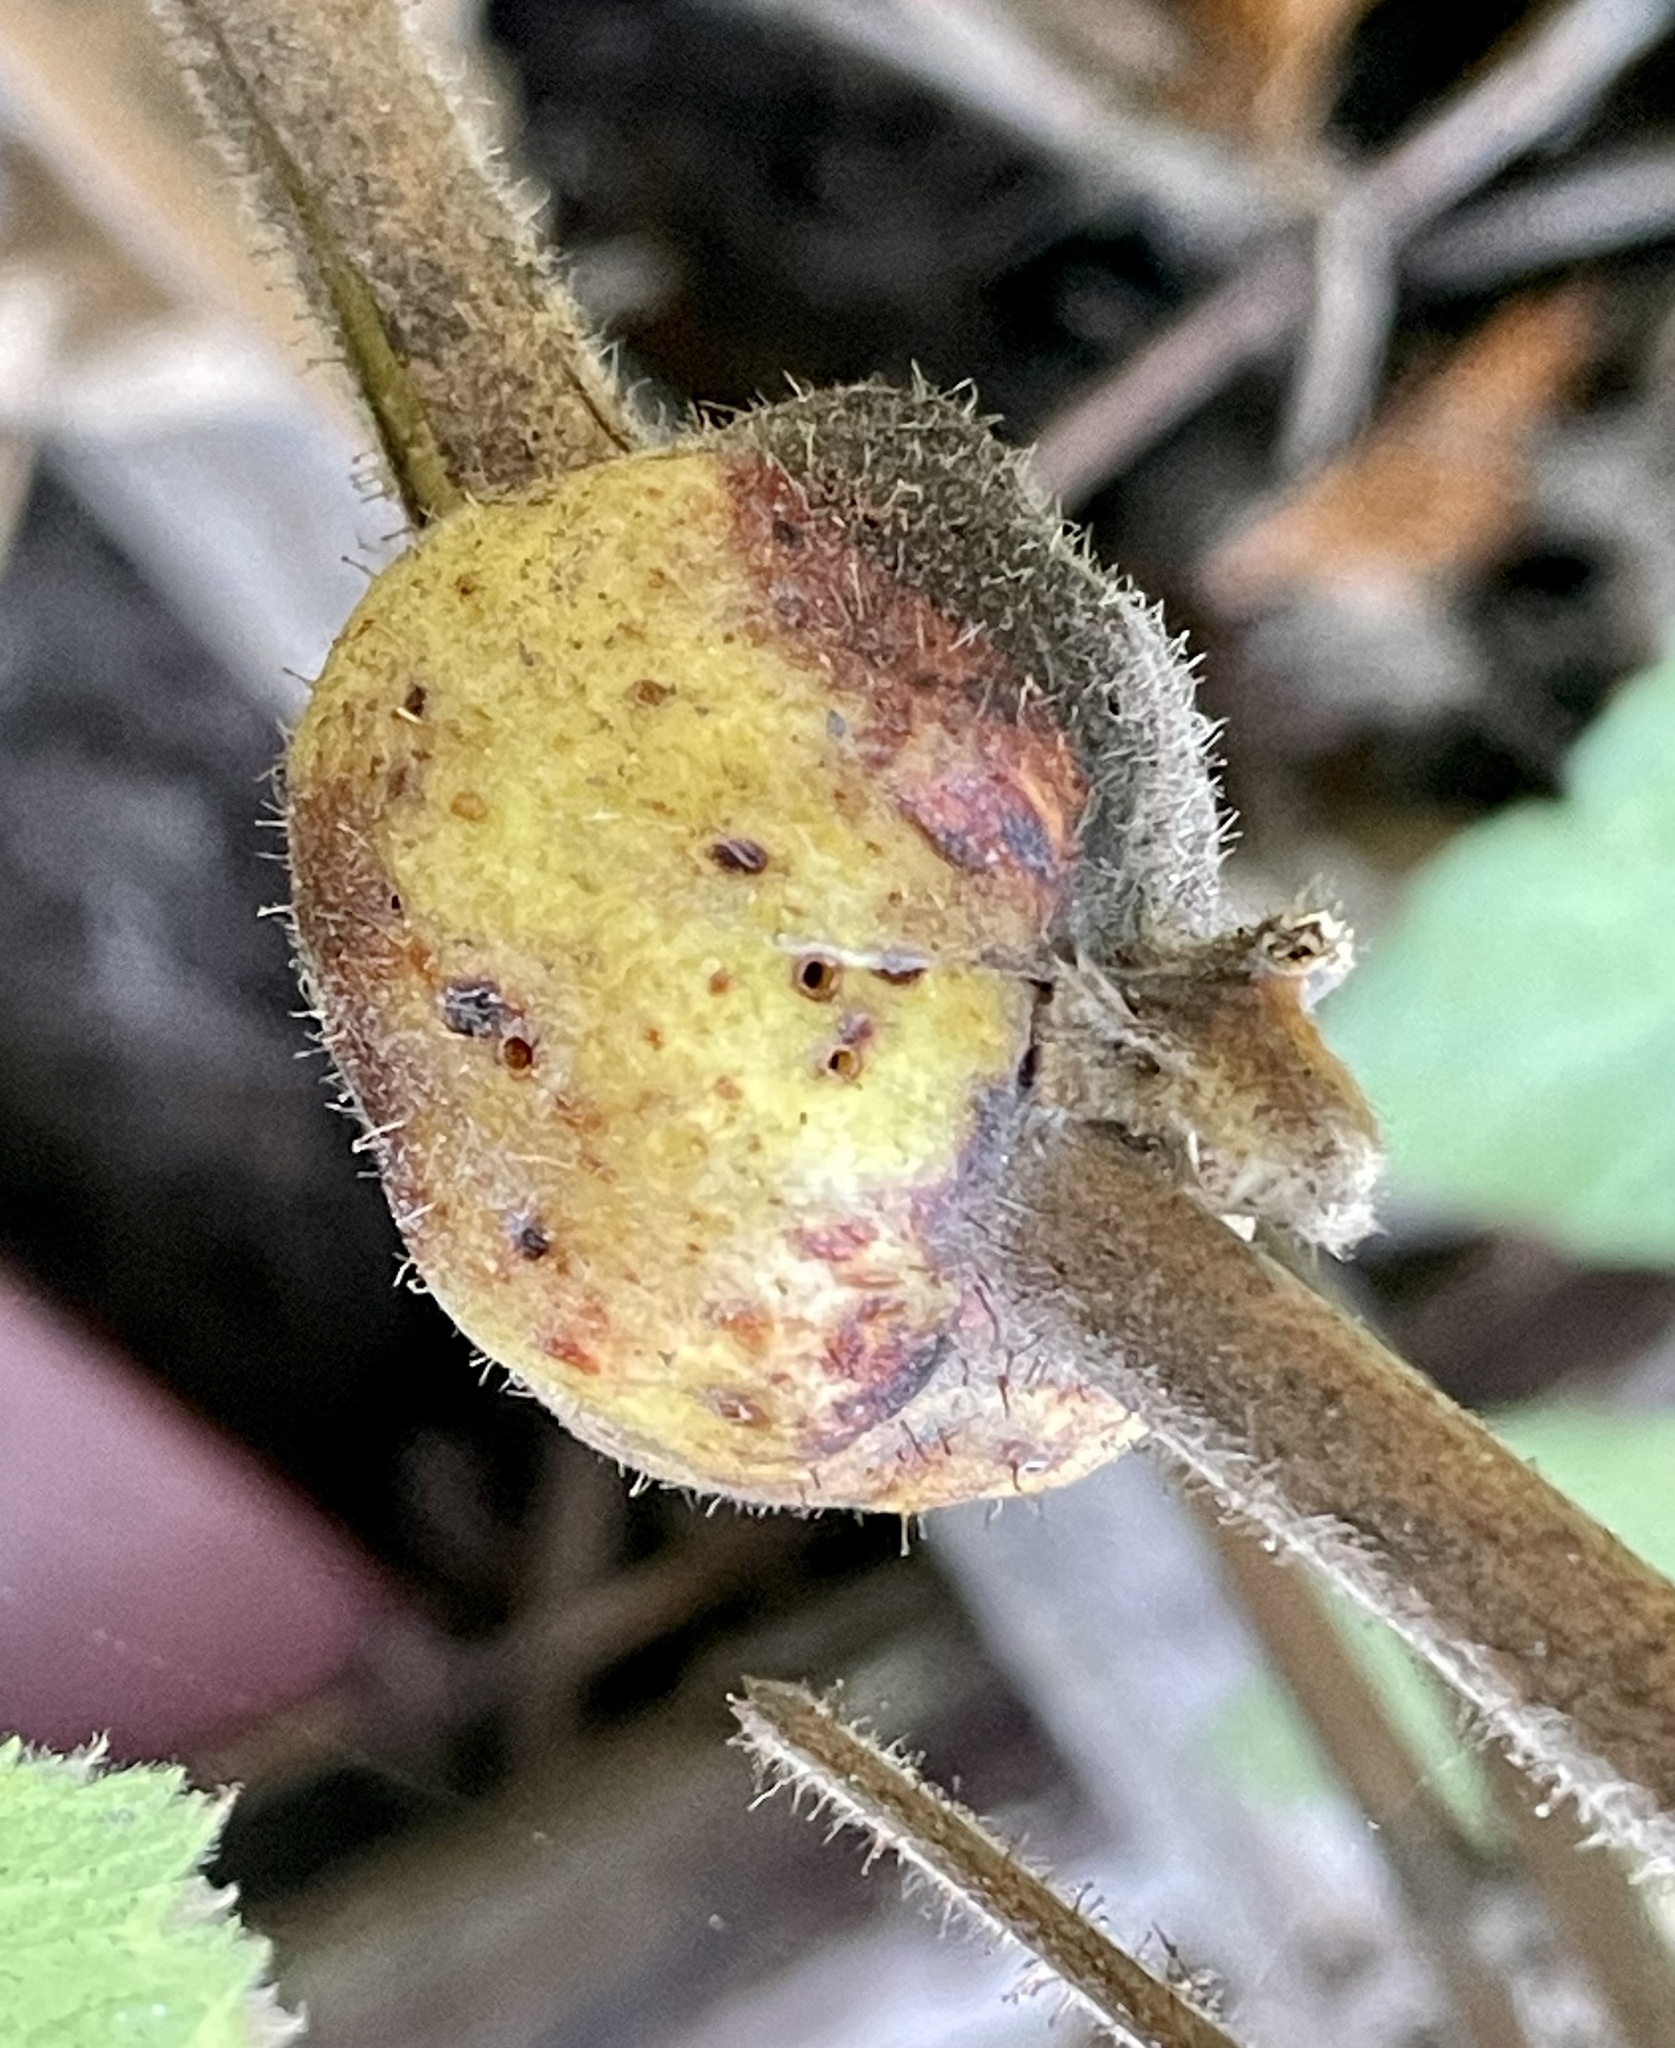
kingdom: Animalia
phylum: Arthropoda
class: Insecta
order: Hymenoptera
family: Cynipidae
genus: Diastrophus
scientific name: Diastrophus
